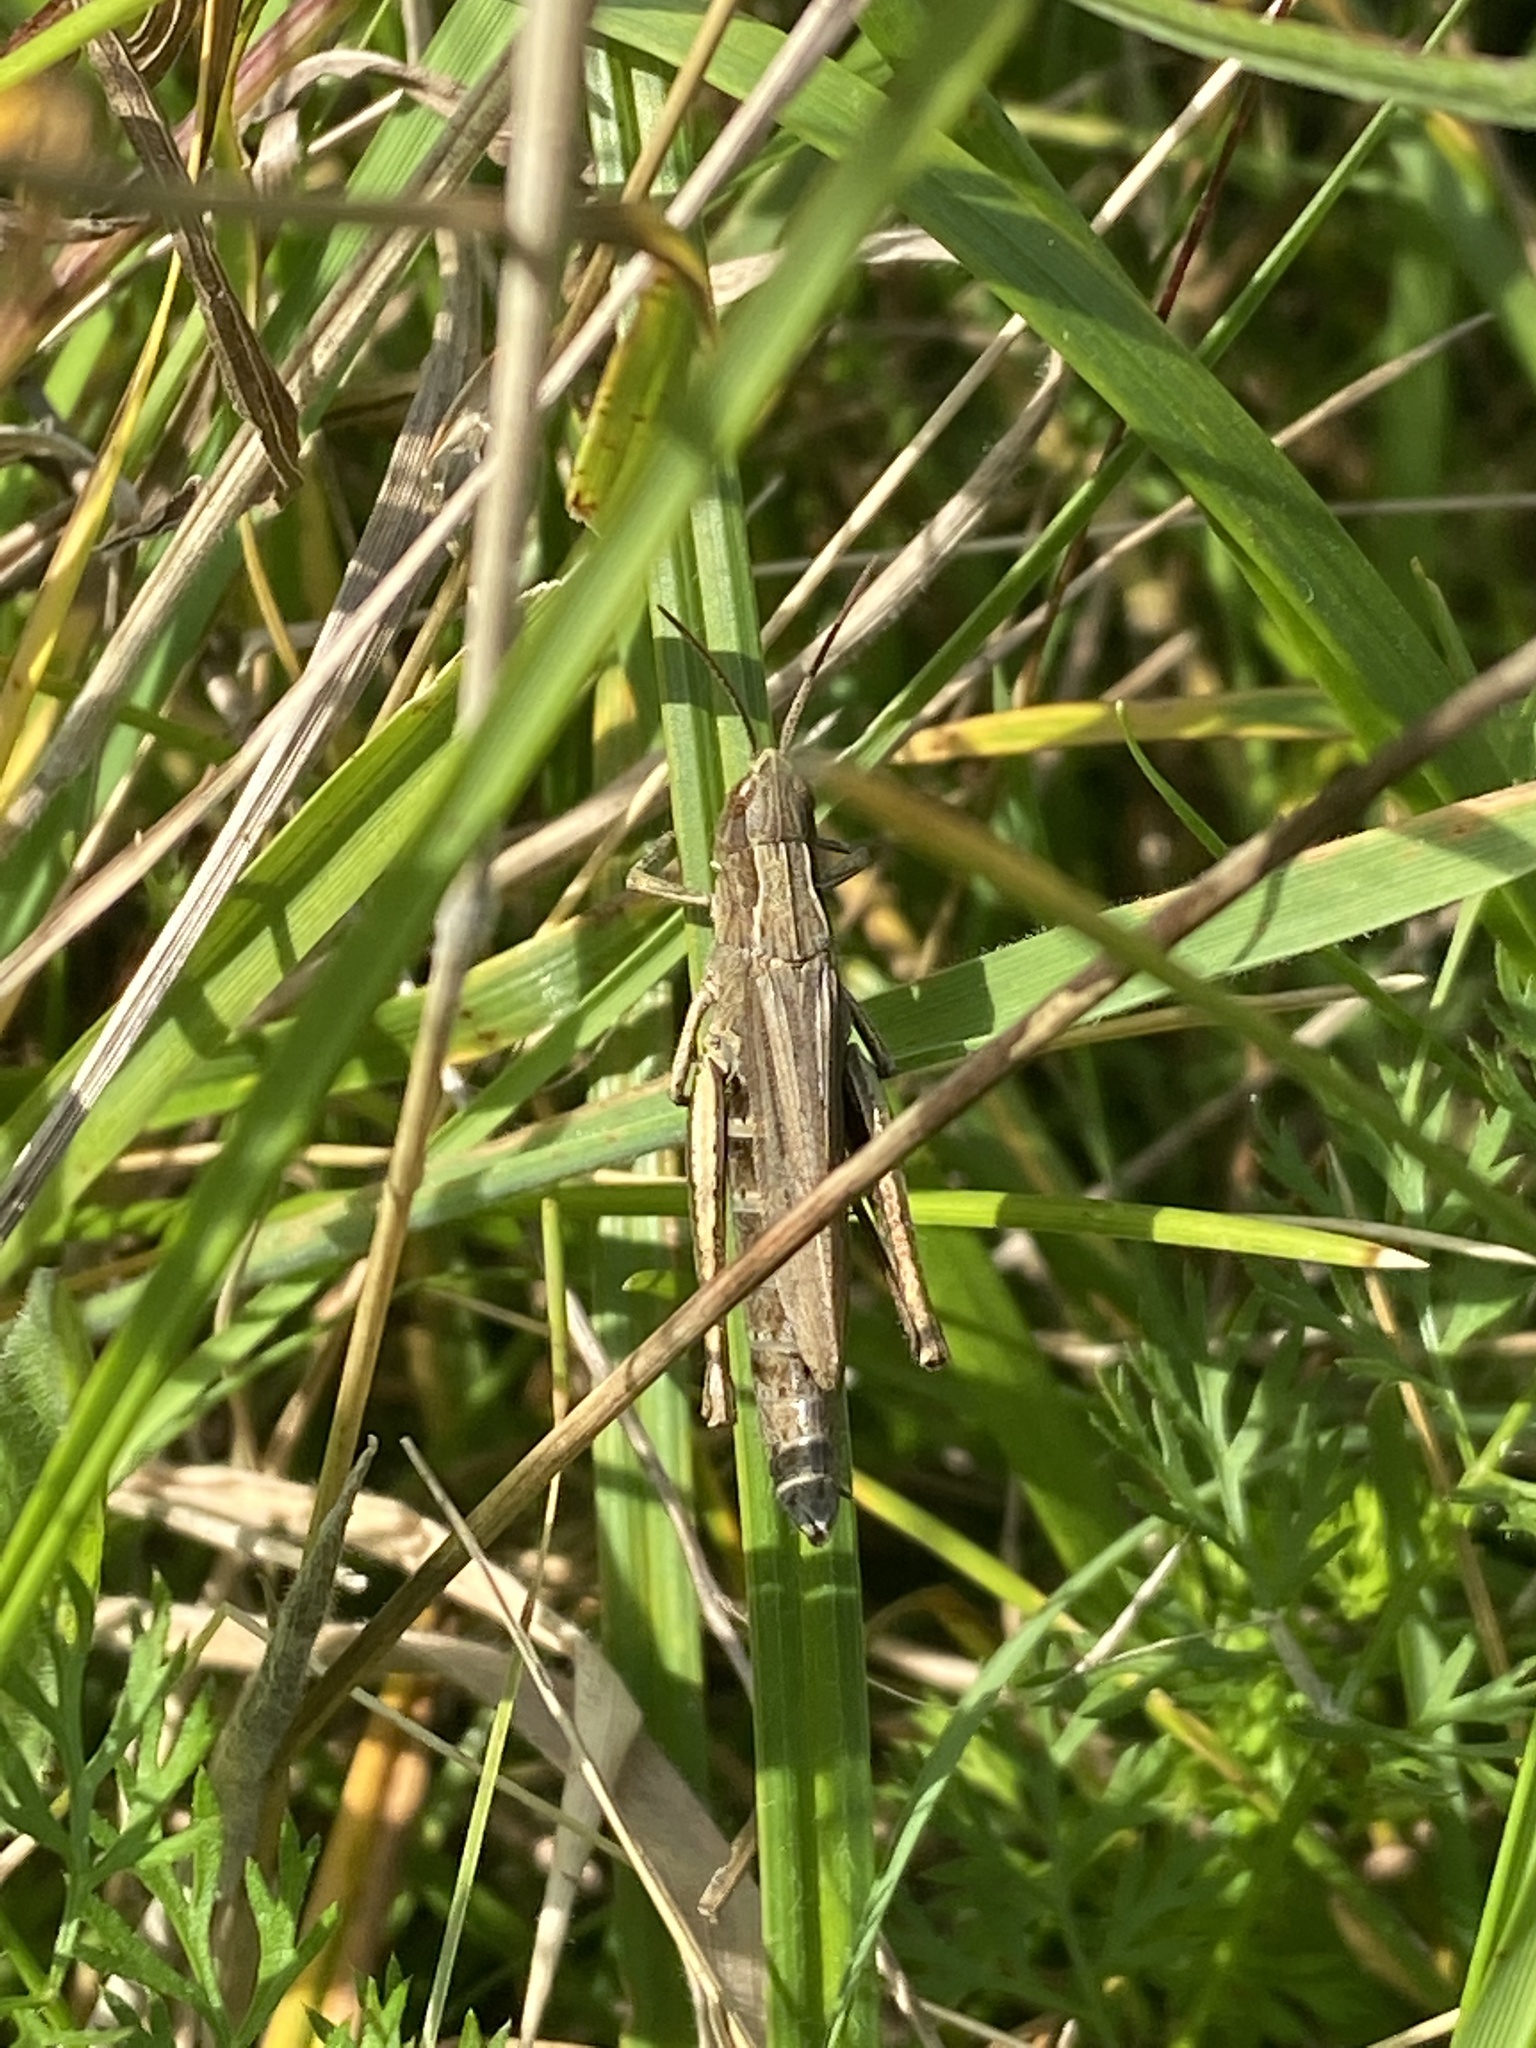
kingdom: Animalia
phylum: Arthropoda
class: Insecta
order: Orthoptera
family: Acrididae
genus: Chorthippus
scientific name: Chorthippus dorsatus
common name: Steppe grasshopper
